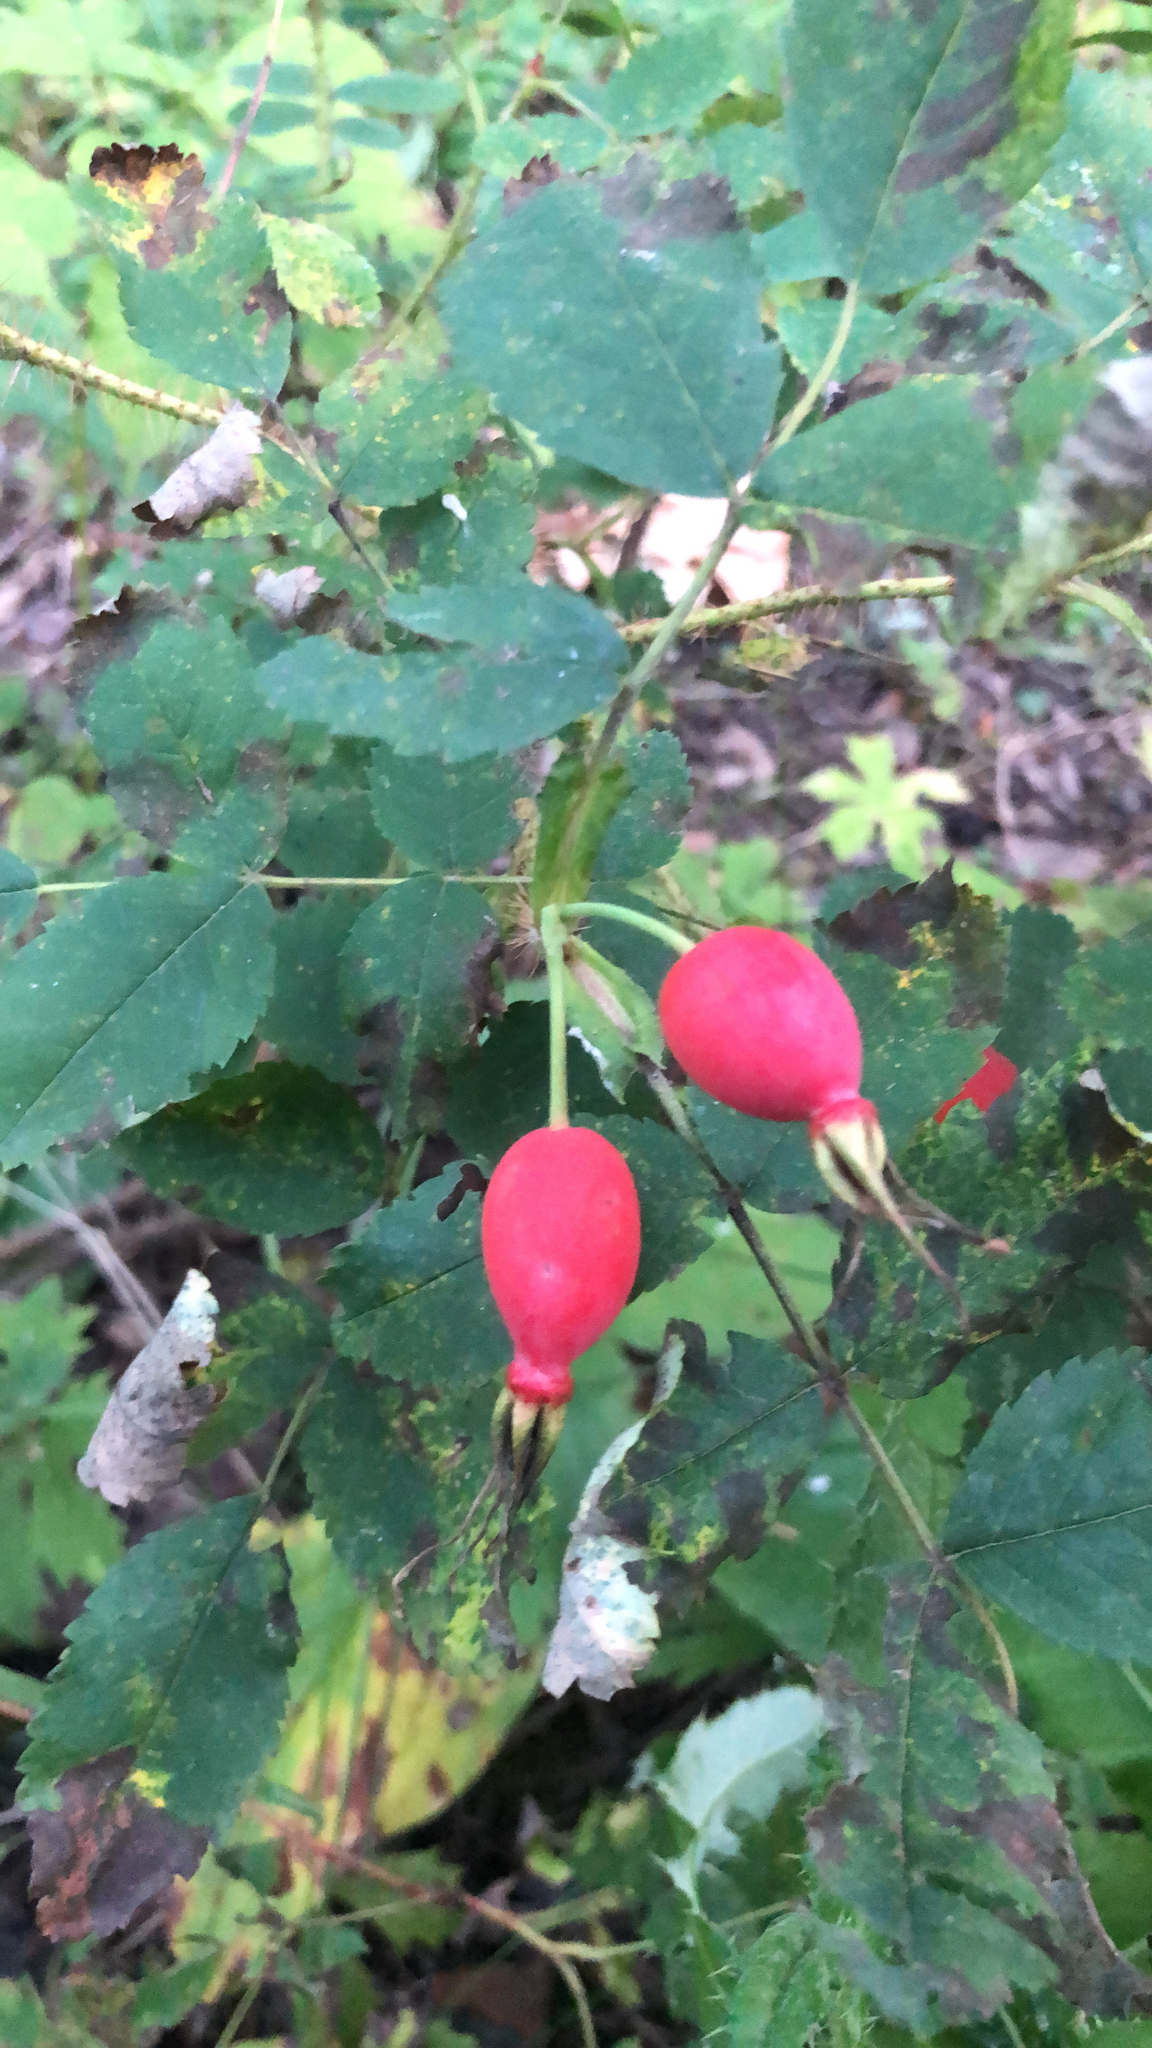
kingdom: Plantae
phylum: Tracheophyta
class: Magnoliopsida
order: Rosales
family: Rosaceae
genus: Rosa
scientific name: Rosa acicularis
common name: Prickly rose
